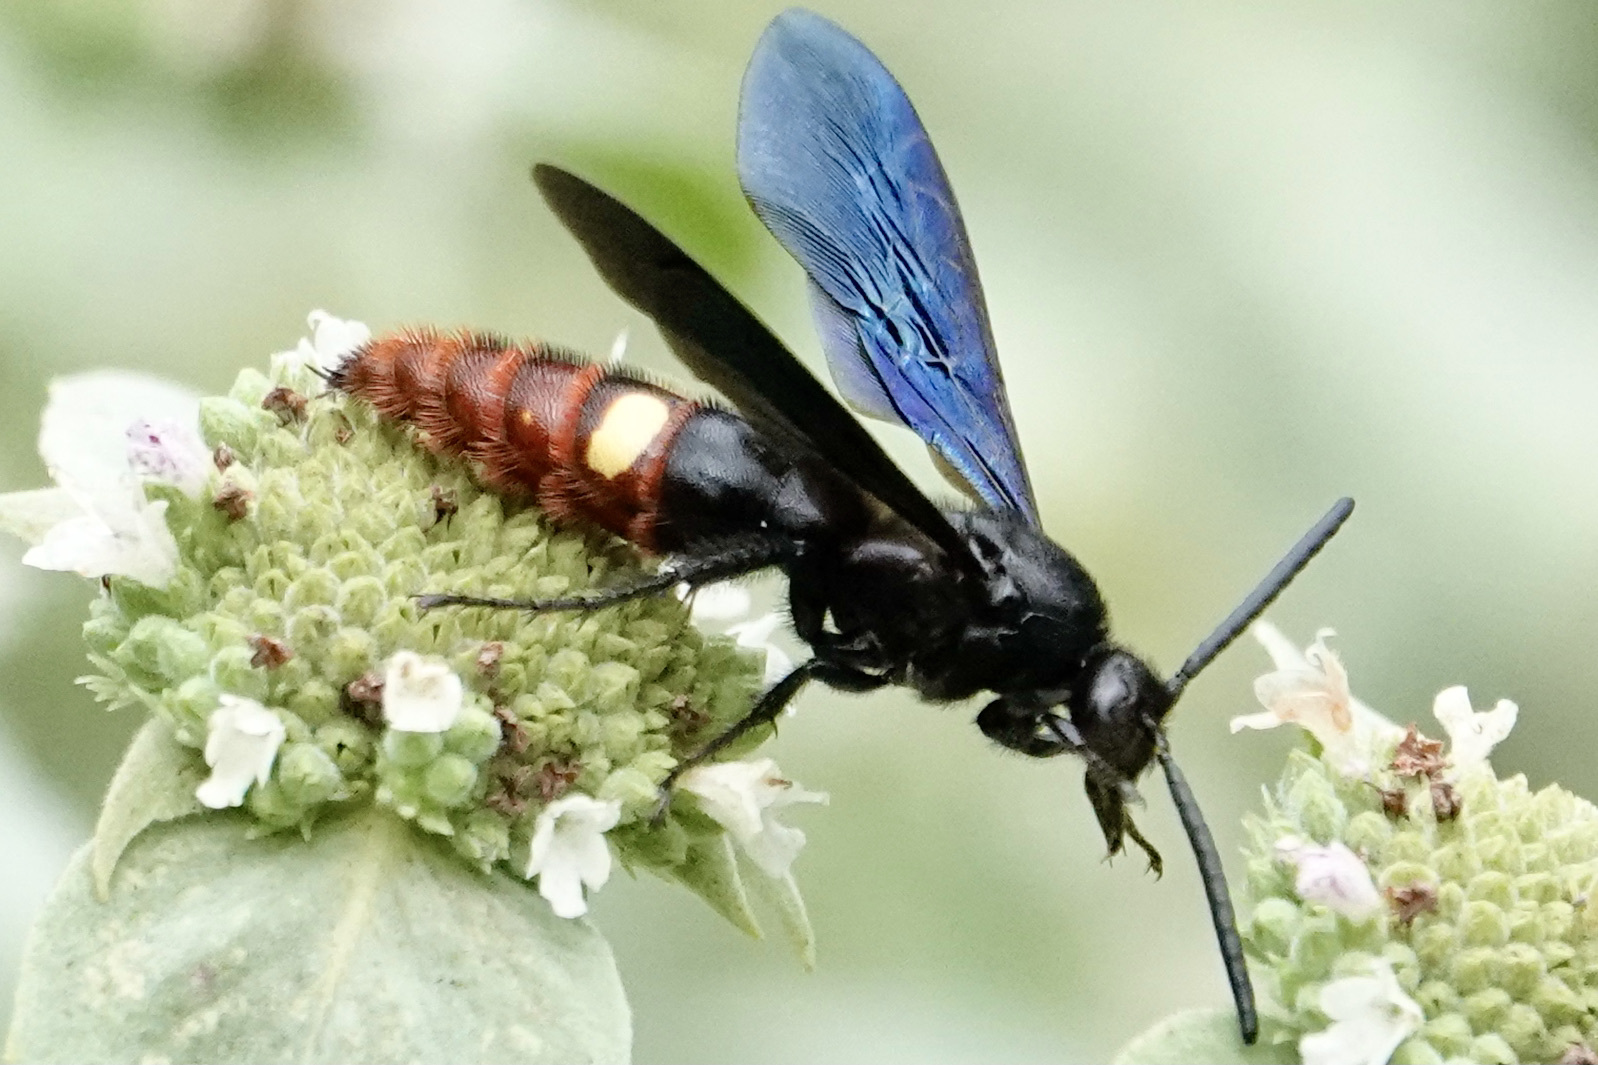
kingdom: Animalia
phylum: Arthropoda
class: Insecta
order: Hymenoptera
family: Scoliidae
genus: Scolia
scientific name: Scolia dubia
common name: Blue-winged scoliid wasp
